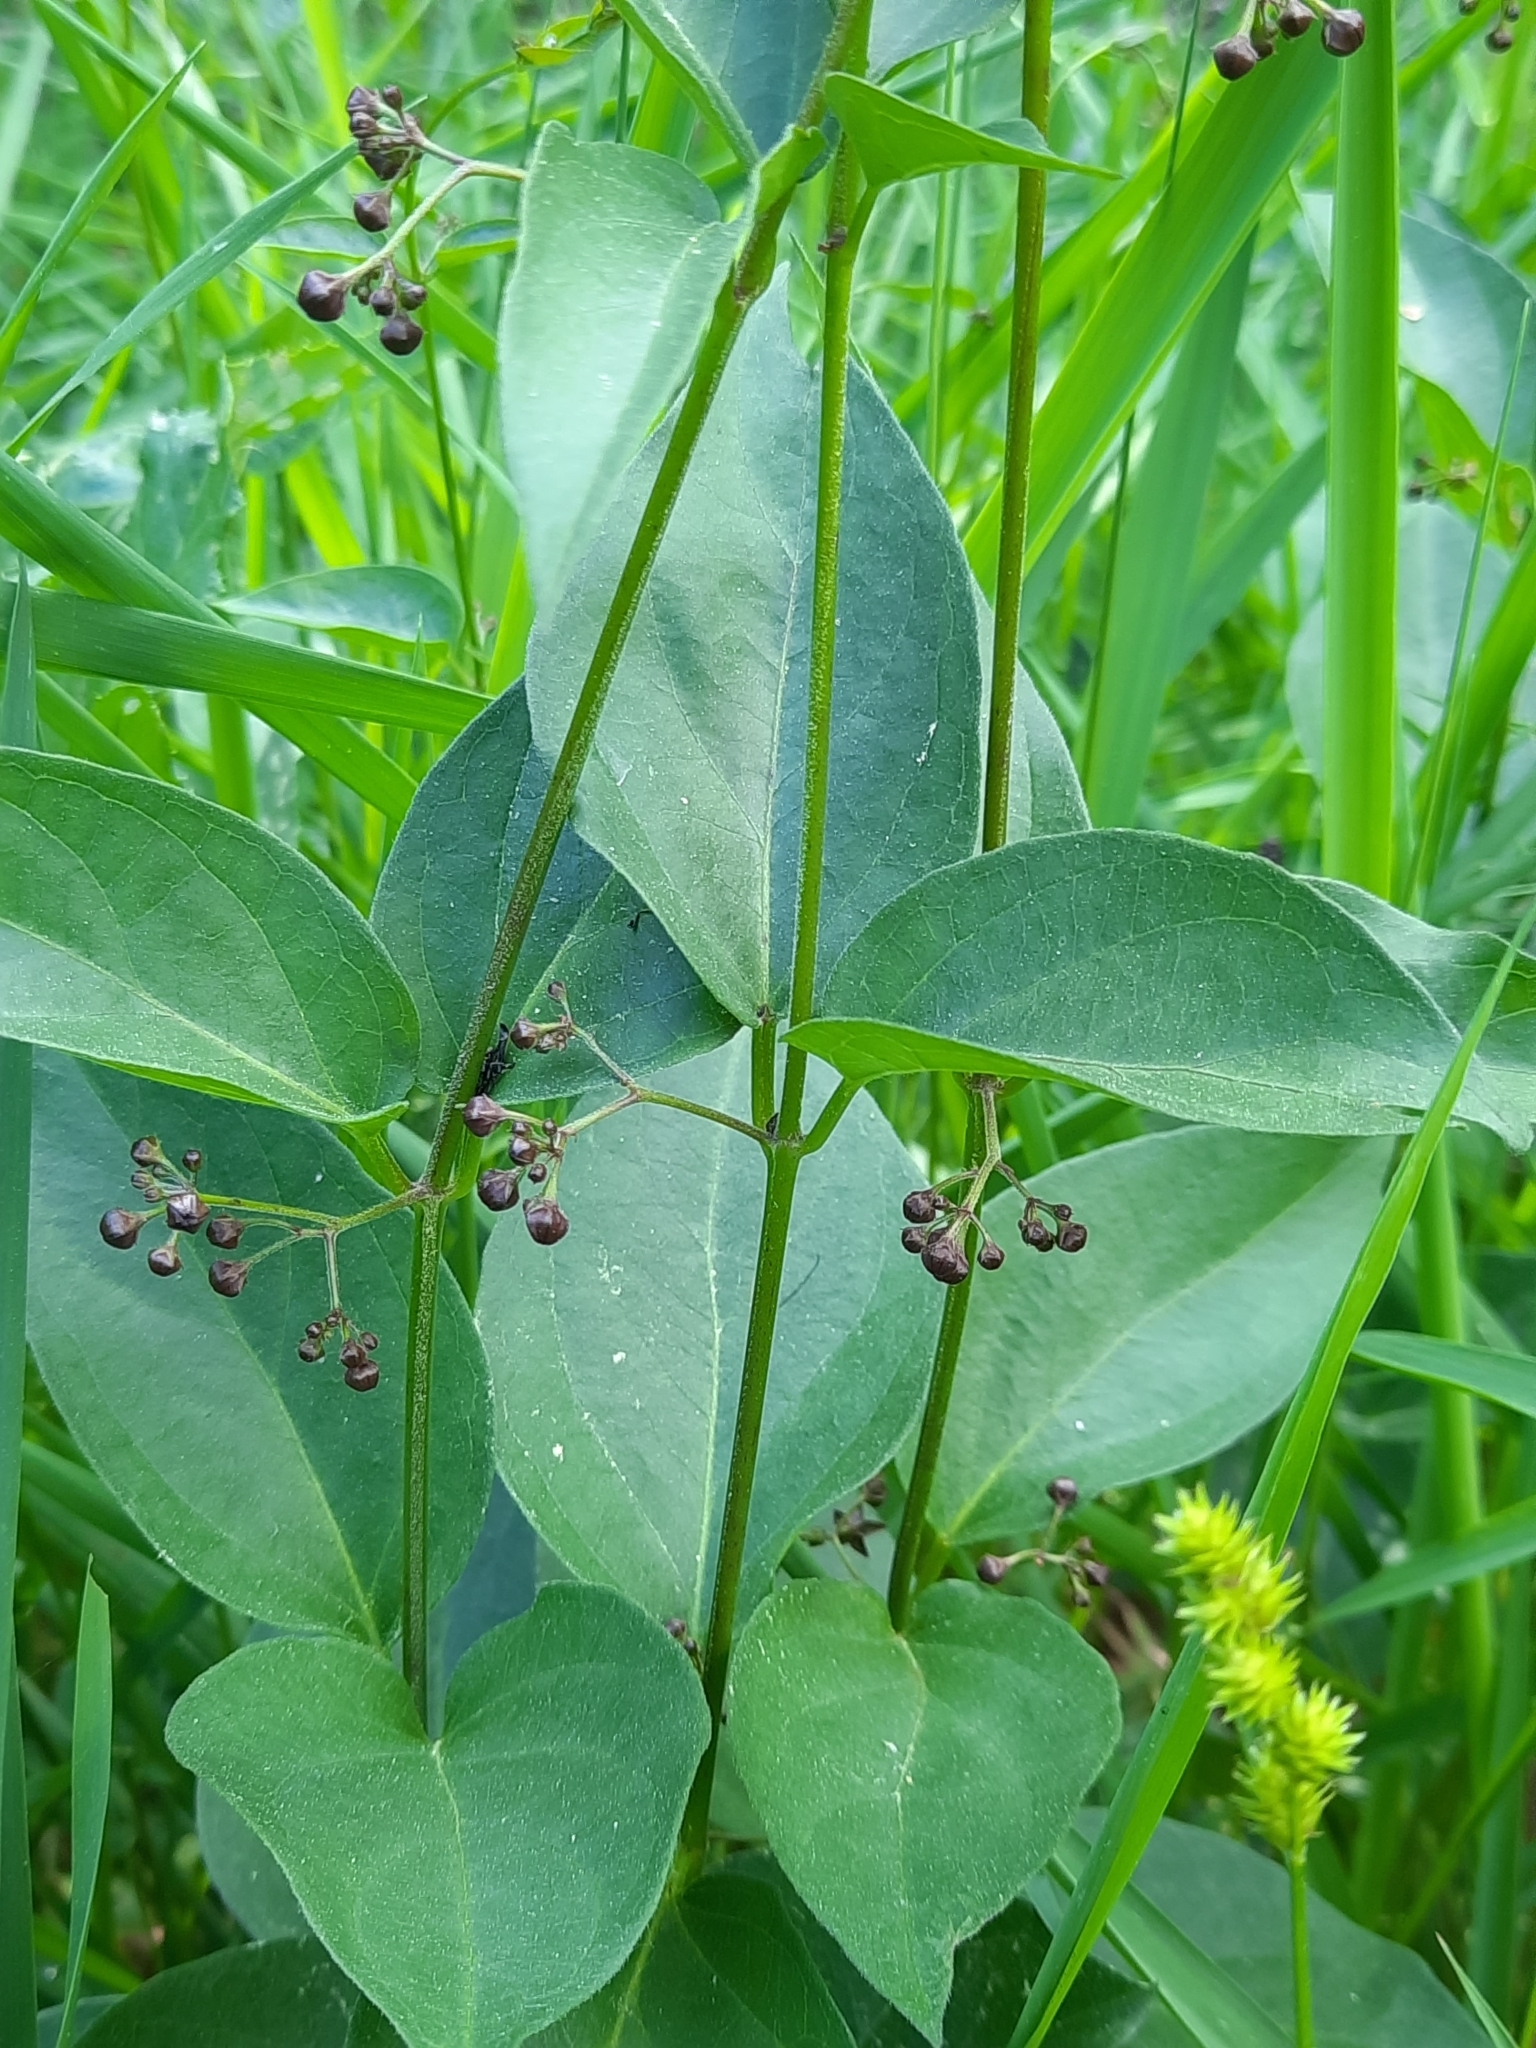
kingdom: Plantae
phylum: Tracheophyta
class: Magnoliopsida
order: Gentianales
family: Apocynaceae
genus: Vincetoxicum
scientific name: Vincetoxicum nigrum
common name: Black swallow-wort
